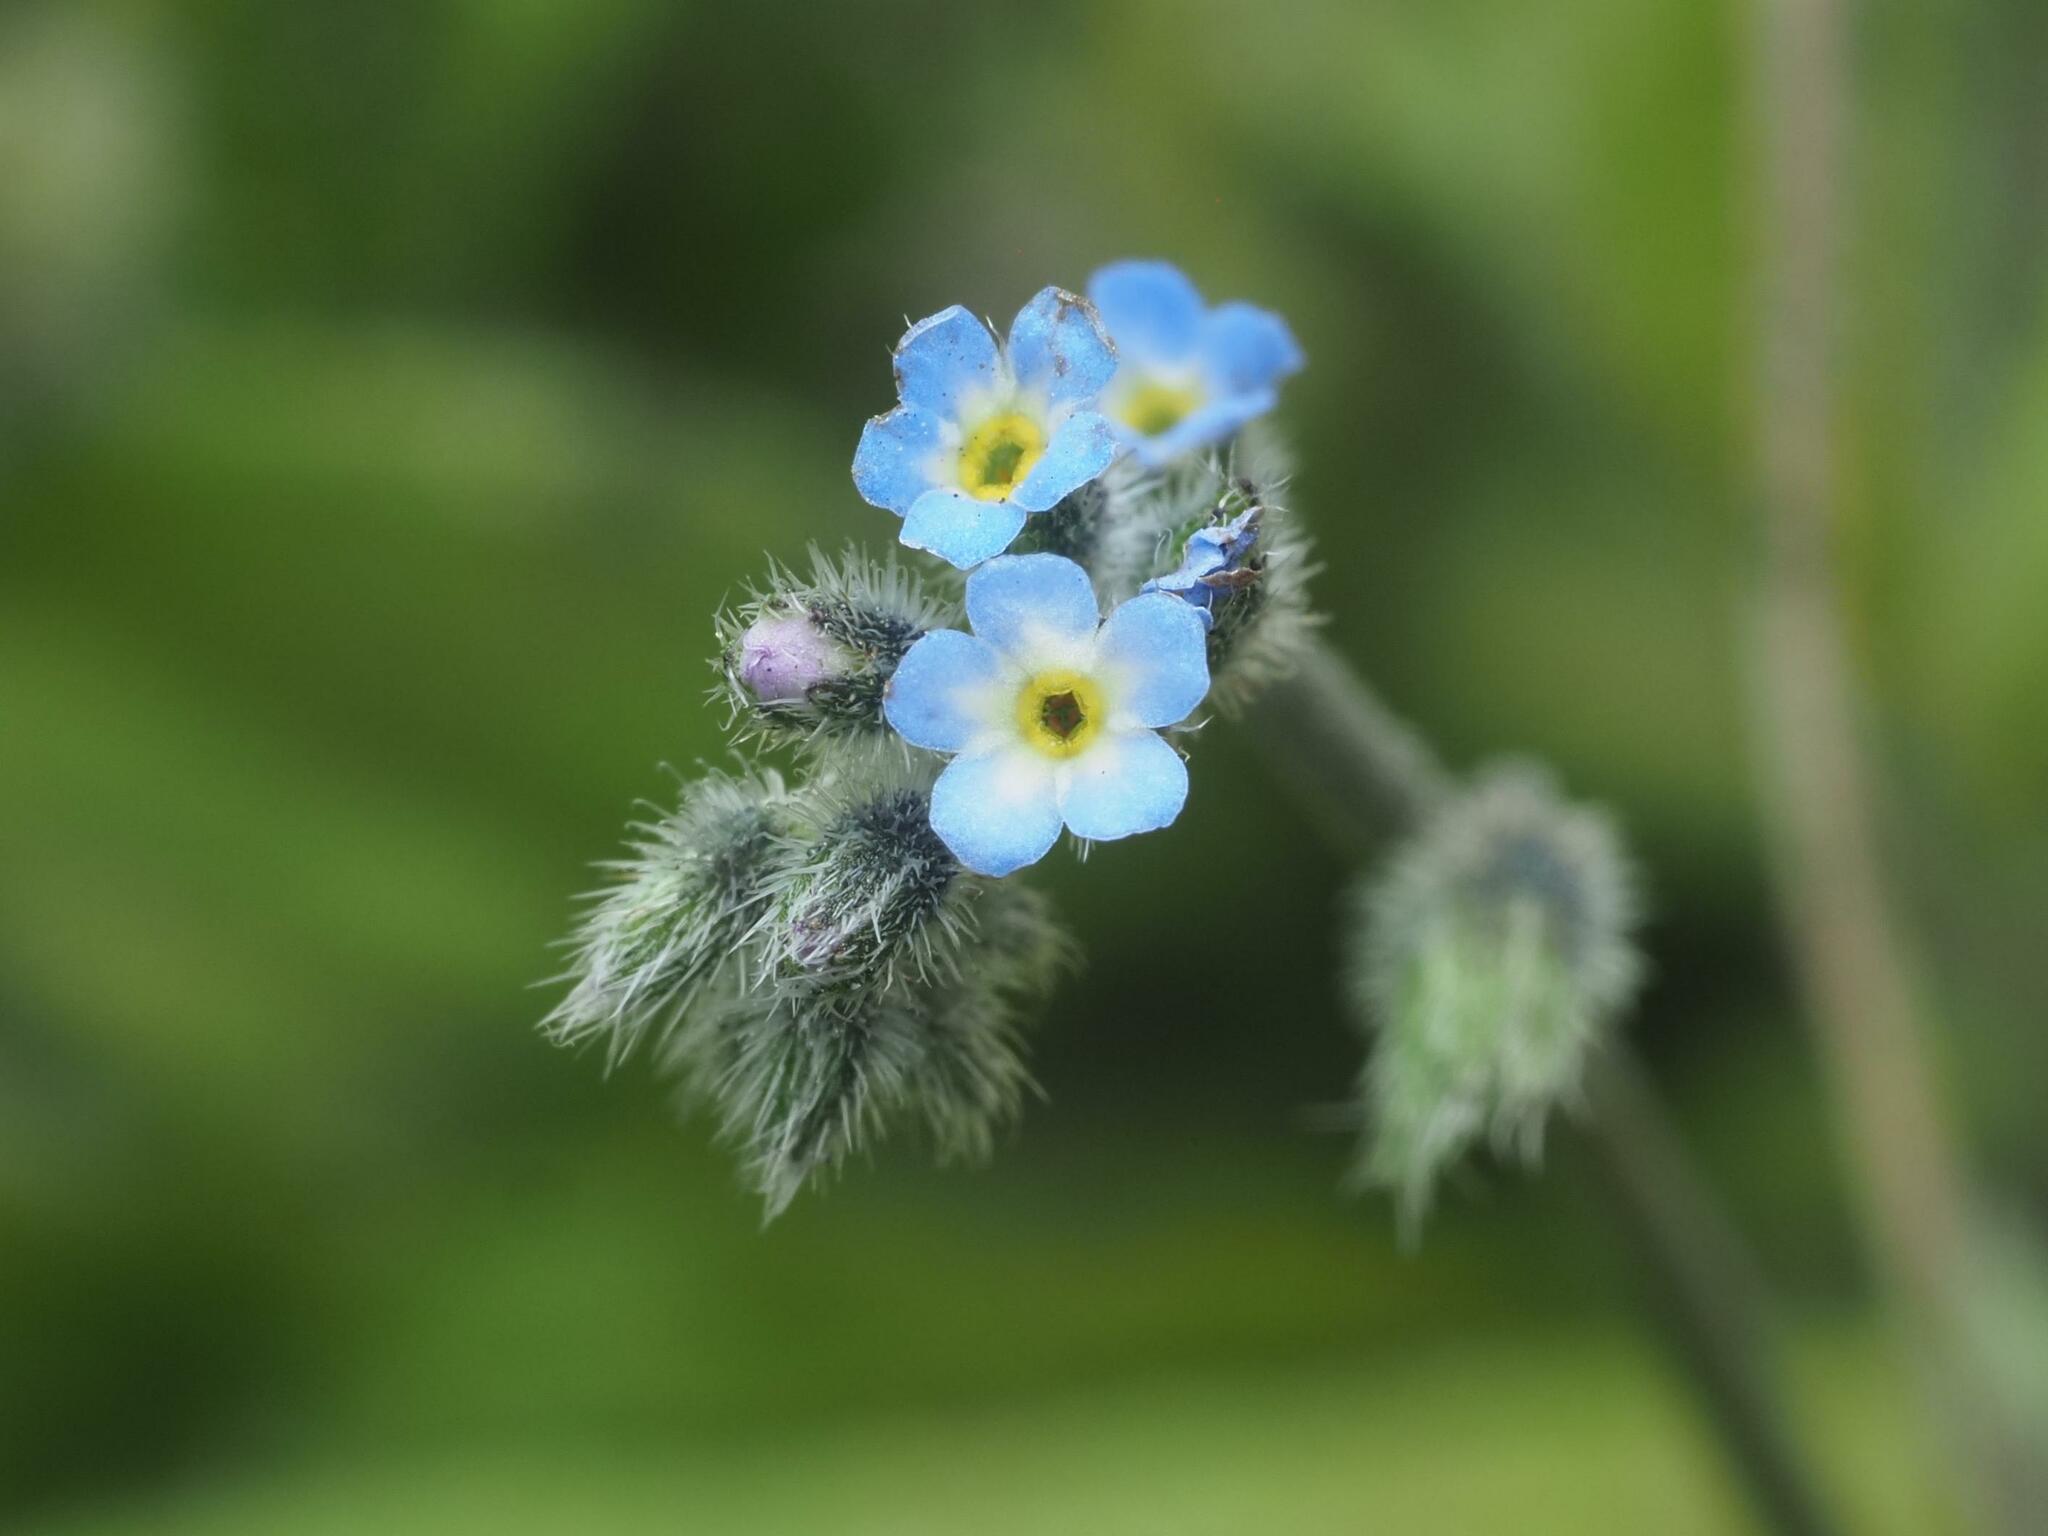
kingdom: Plantae
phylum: Tracheophyta
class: Magnoliopsida
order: Boraginales
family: Boraginaceae
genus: Myosotis
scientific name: Myosotis ramosissima
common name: Early forget-me-not
